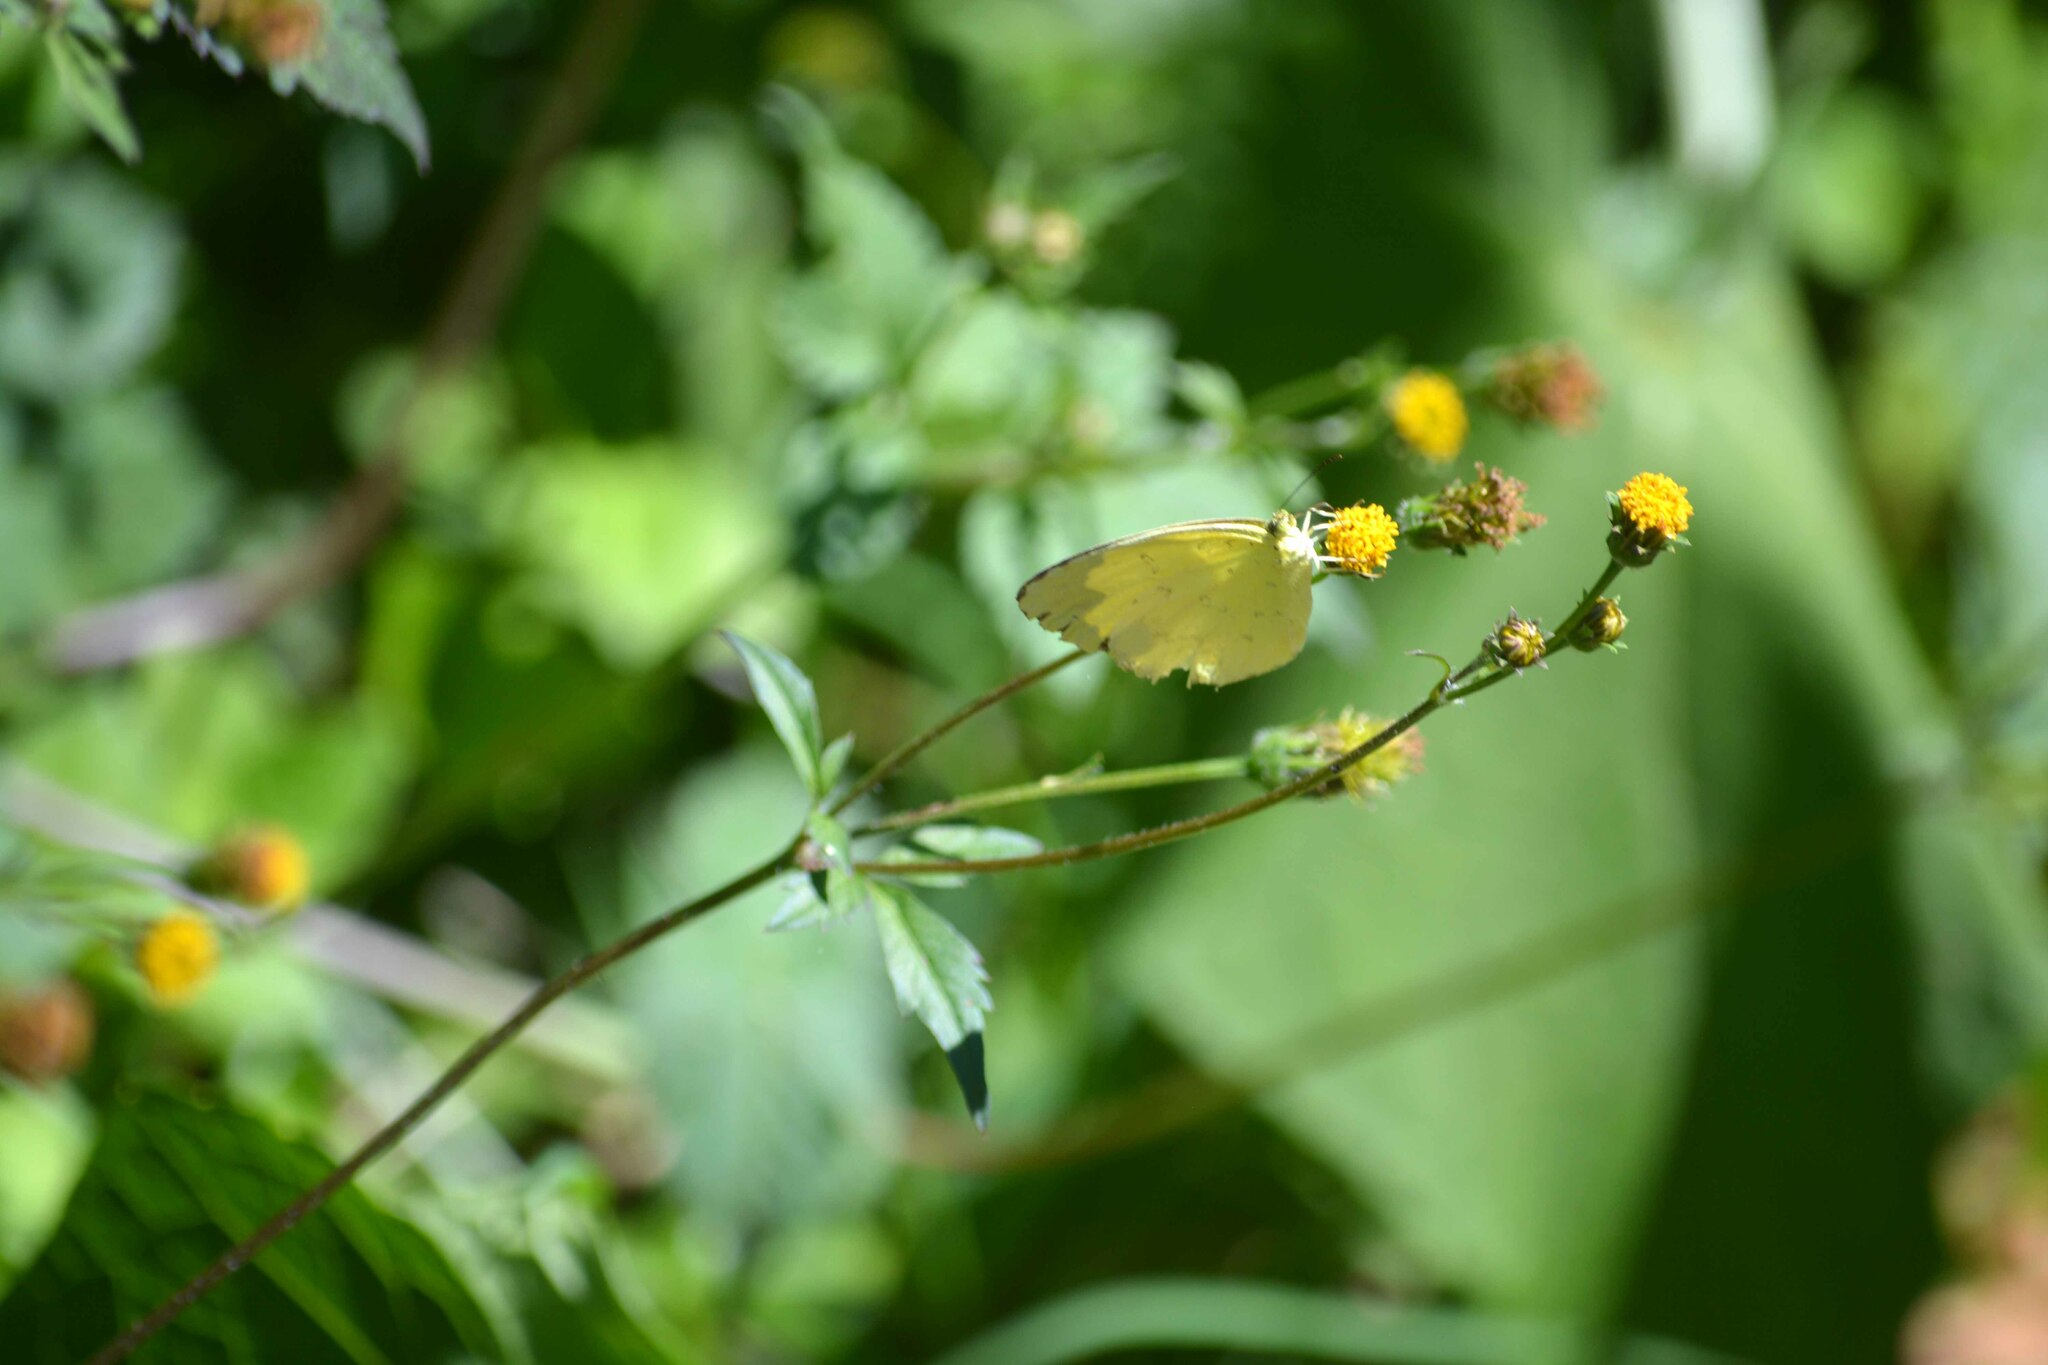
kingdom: Animalia
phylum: Arthropoda
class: Insecta
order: Lepidoptera
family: Pieridae
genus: Eurema
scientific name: Eurema blanda
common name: Three-spot grass yellow
